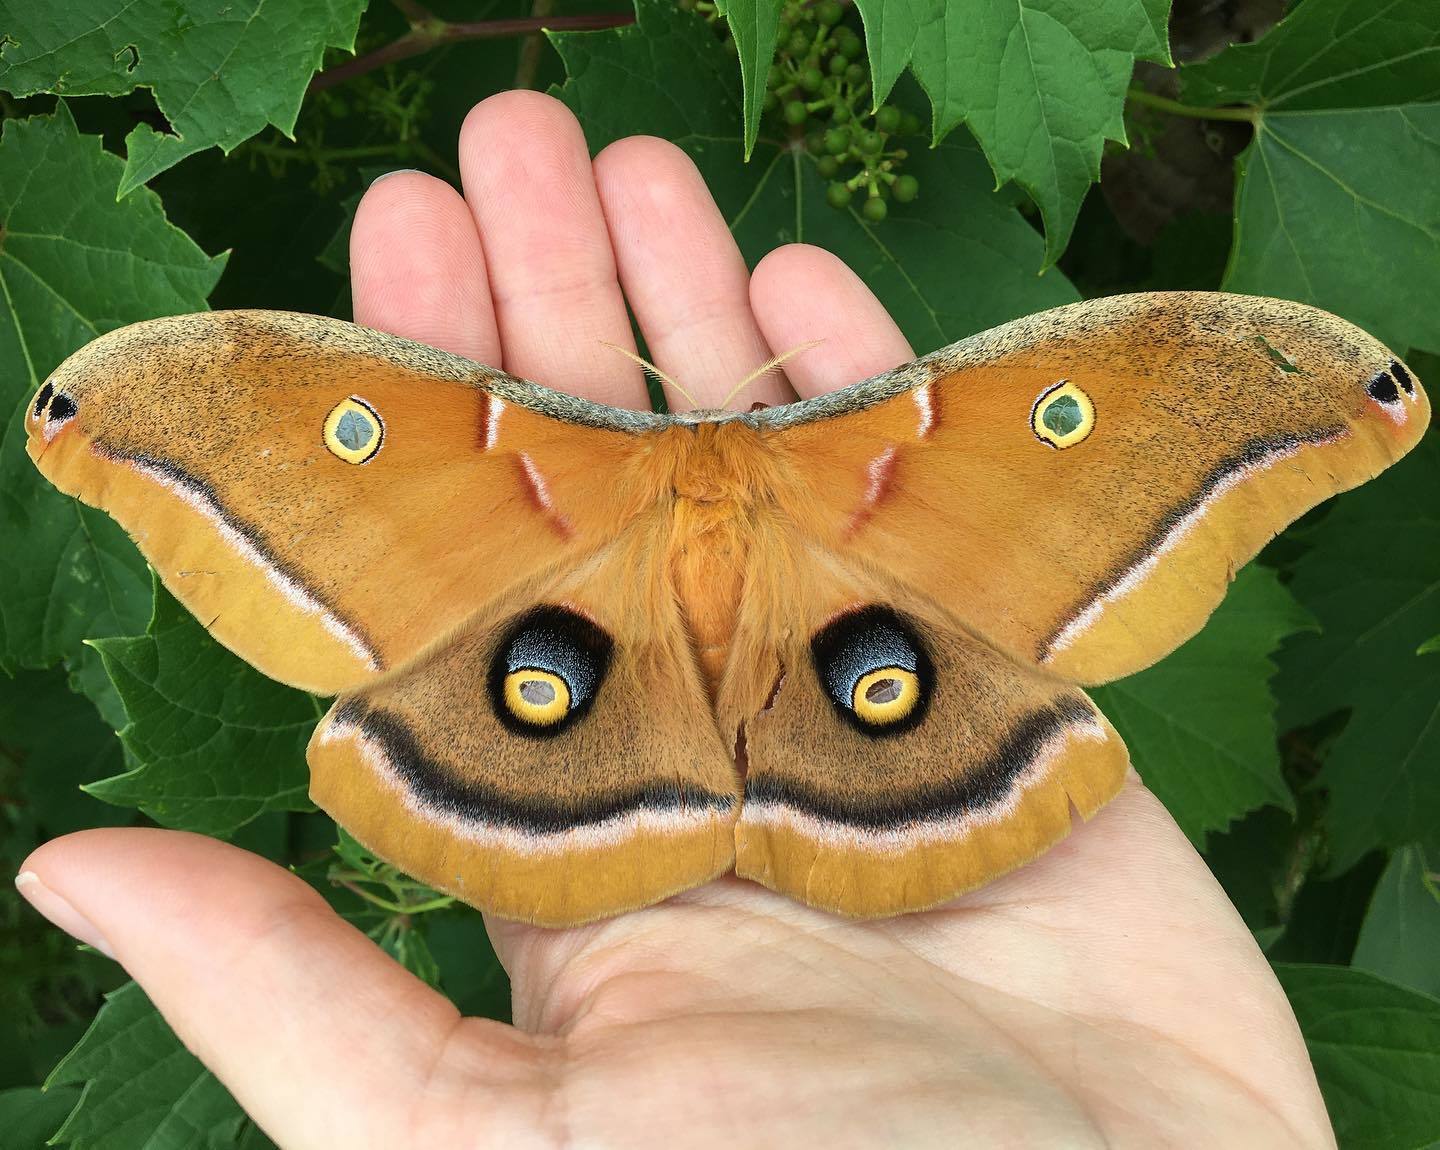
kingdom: Animalia
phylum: Arthropoda
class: Insecta
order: Lepidoptera
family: Saturniidae
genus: Antheraea
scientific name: Antheraea polyphemus
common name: Polyphemus moth
